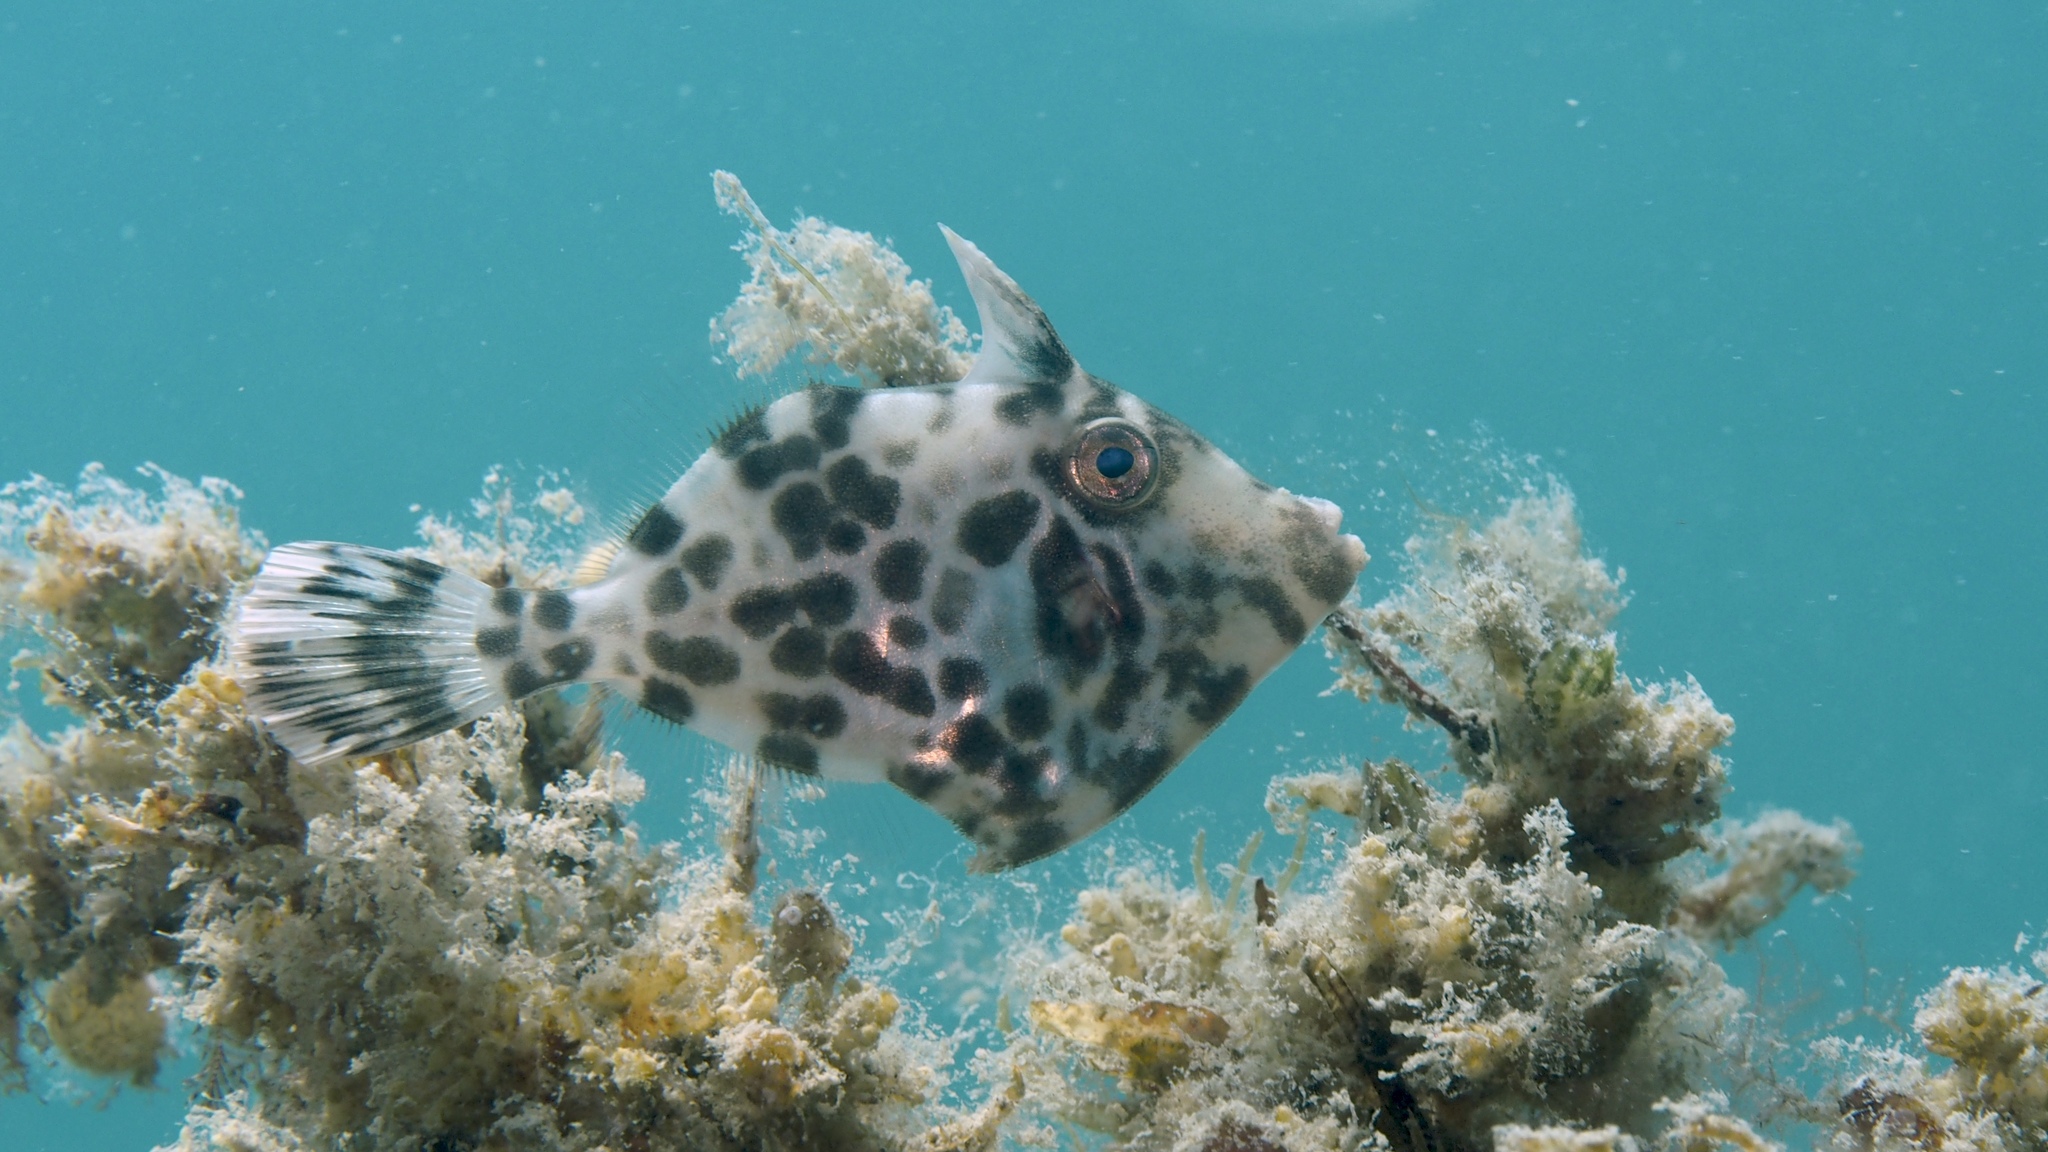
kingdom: Animalia
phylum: Chordata
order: Tetraodontiformes
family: Monacanthidae
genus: Eubalichthys
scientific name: Eubalichthys gunnii
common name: Gunn's leatherjacket
